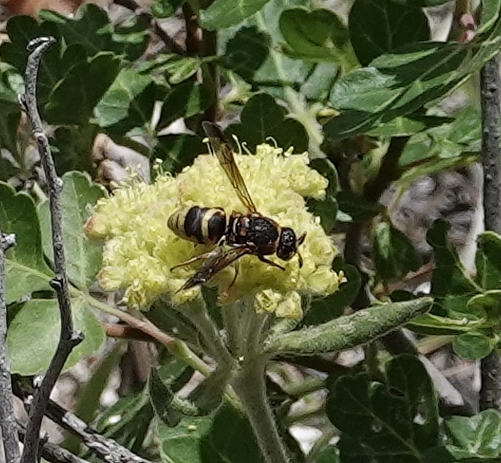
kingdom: Animalia
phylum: Arthropoda
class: Insecta
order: Hymenoptera
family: Eumenidae
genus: Euodynerus
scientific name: Euodynerus
